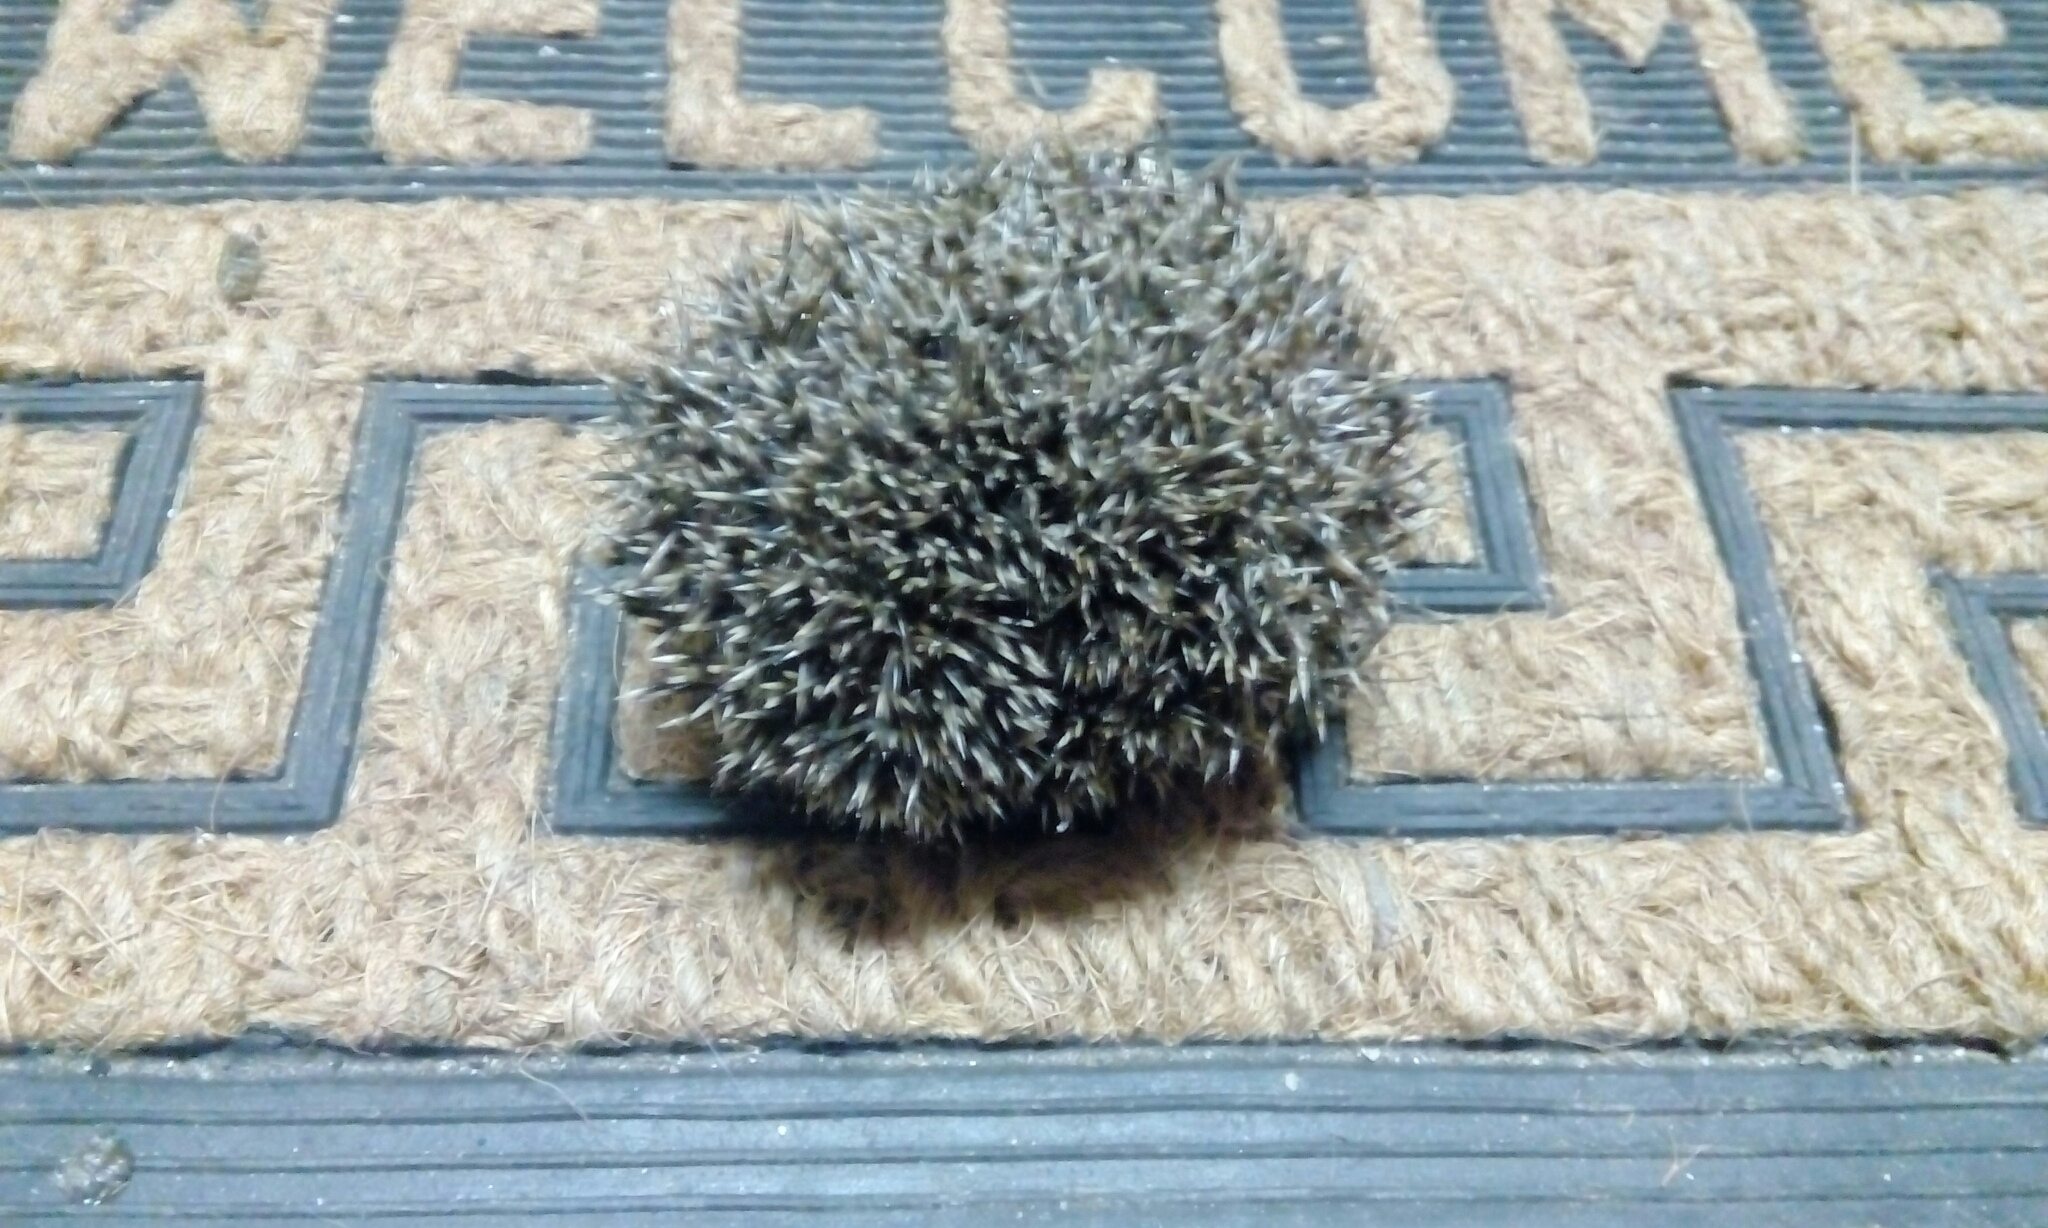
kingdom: Animalia
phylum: Chordata
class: Mammalia
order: Erinaceomorpha
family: Erinaceidae
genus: Erinaceus
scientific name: Erinaceus europaeus
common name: West european hedgehog
